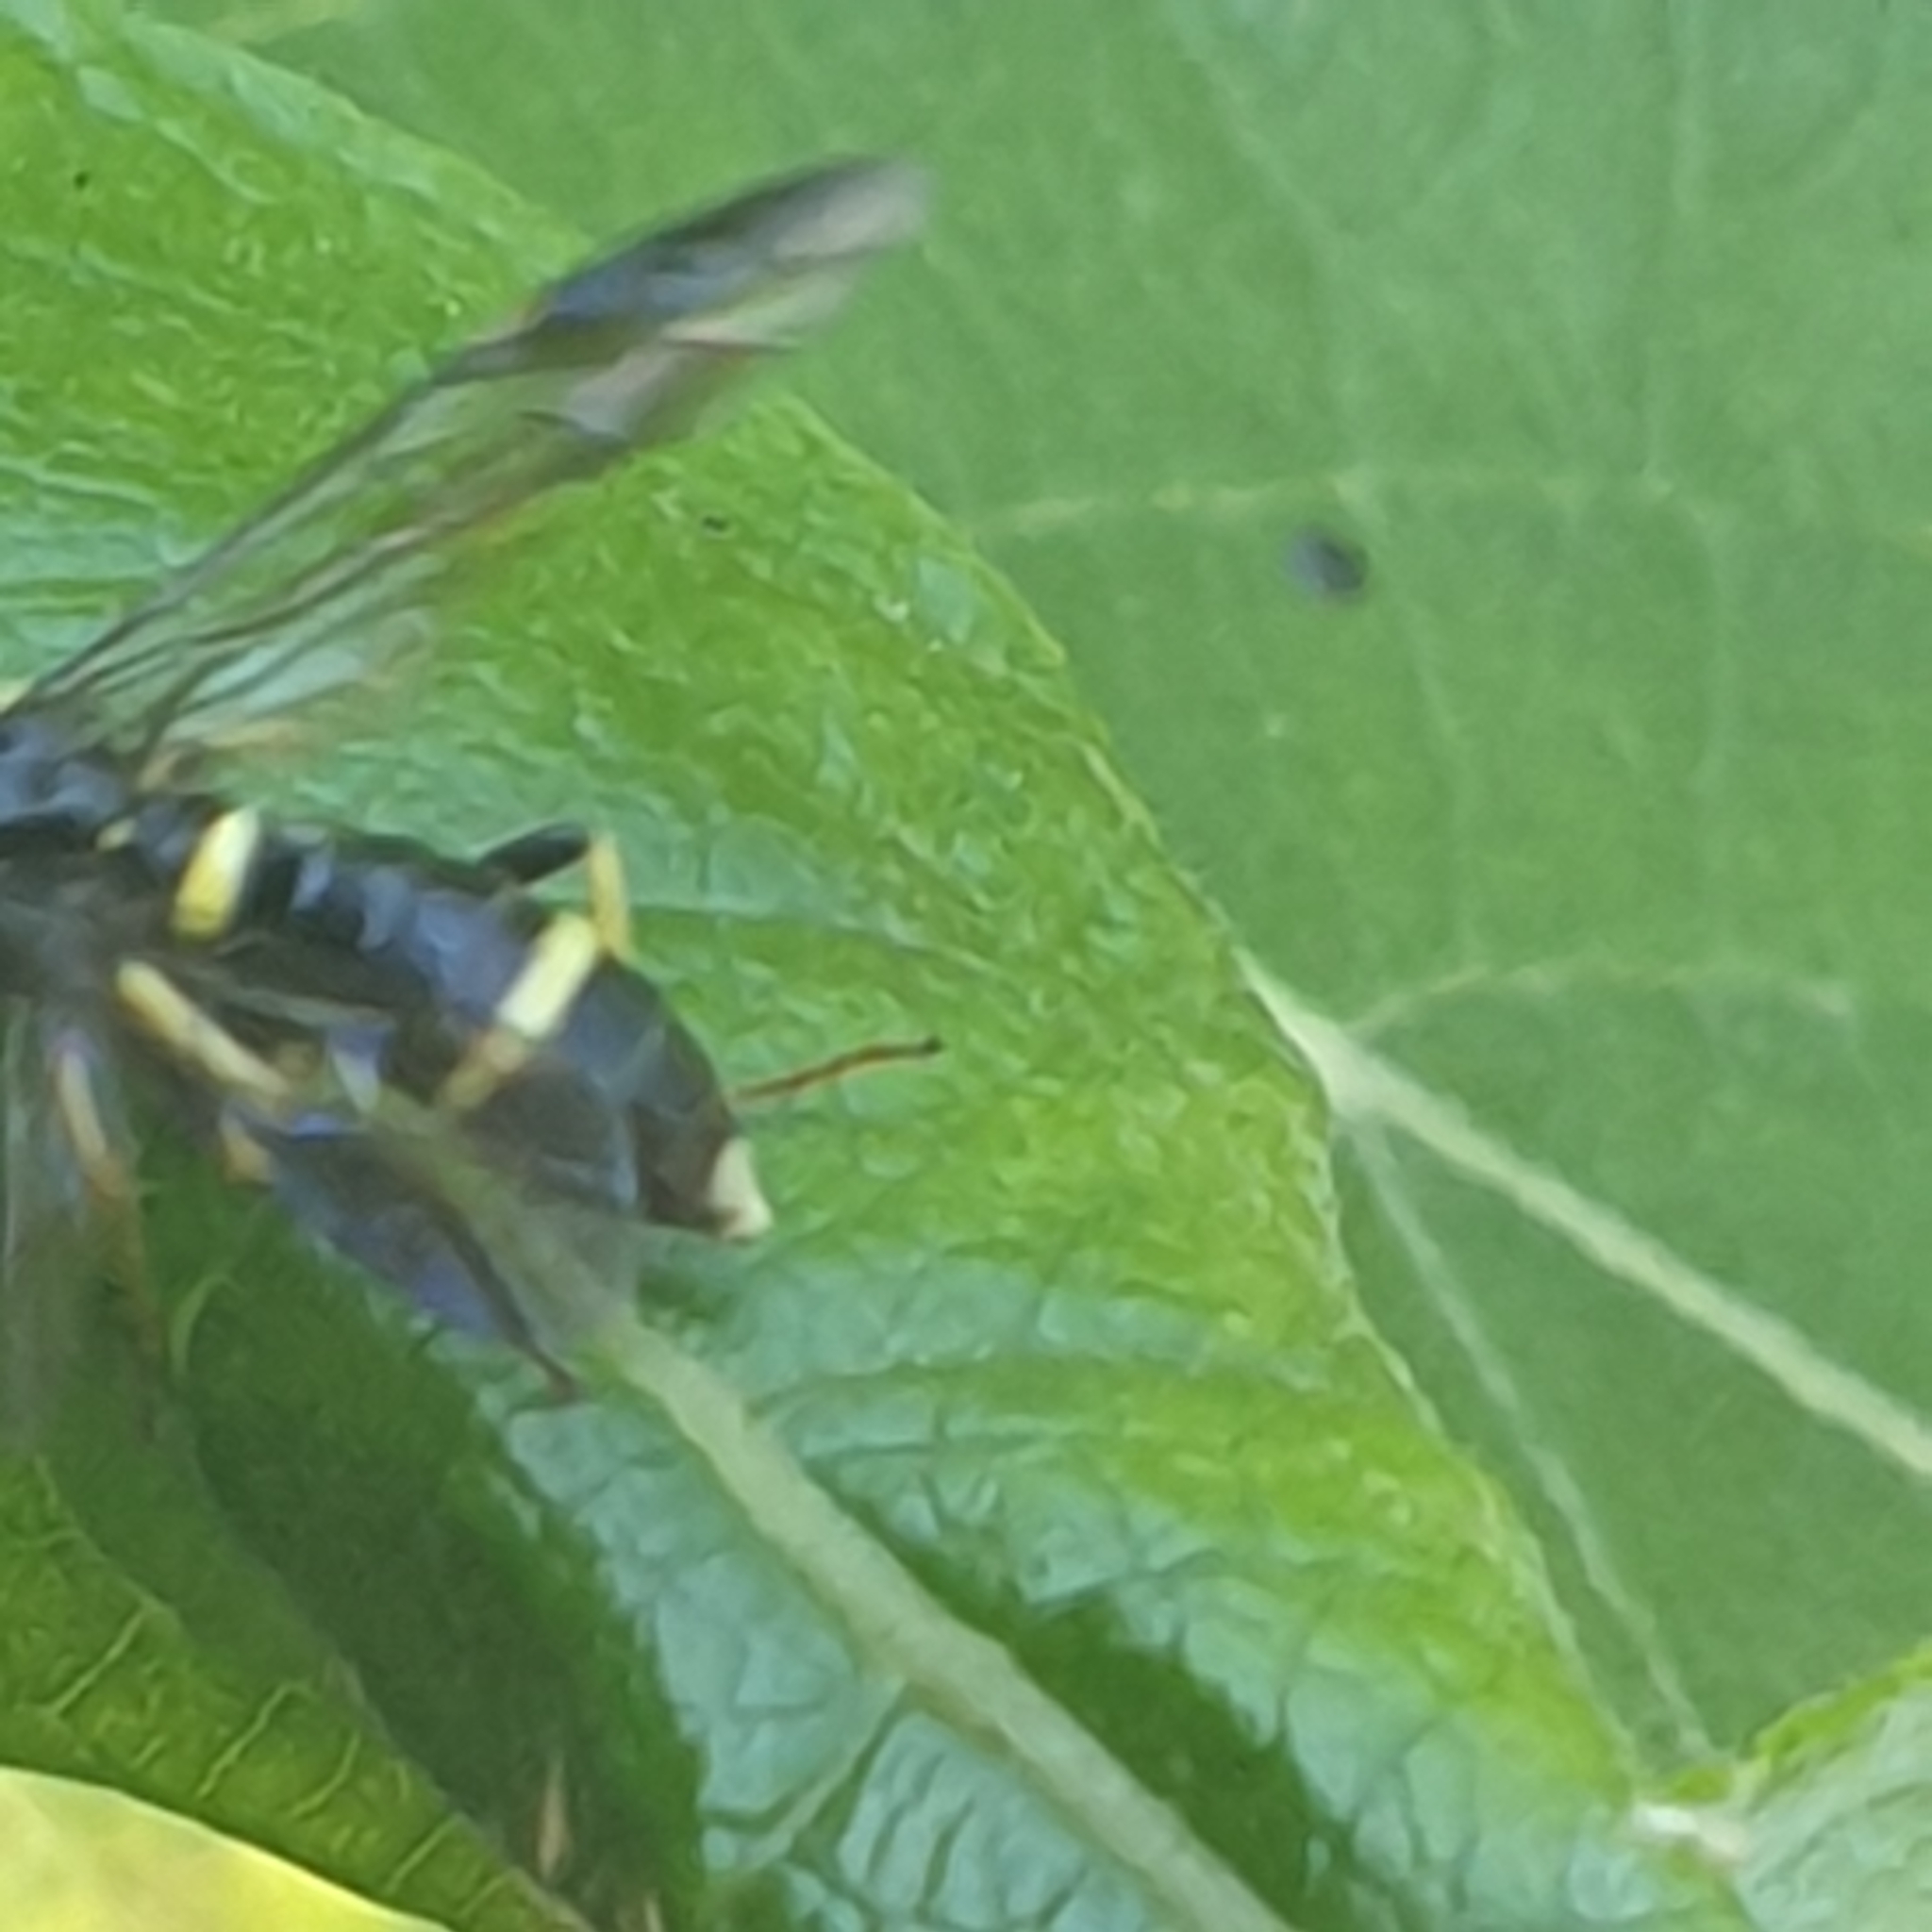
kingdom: Animalia
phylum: Arthropoda
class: Insecta
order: Hymenoptera
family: Tenthredinidae
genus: Allantus
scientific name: Allantus togatus
